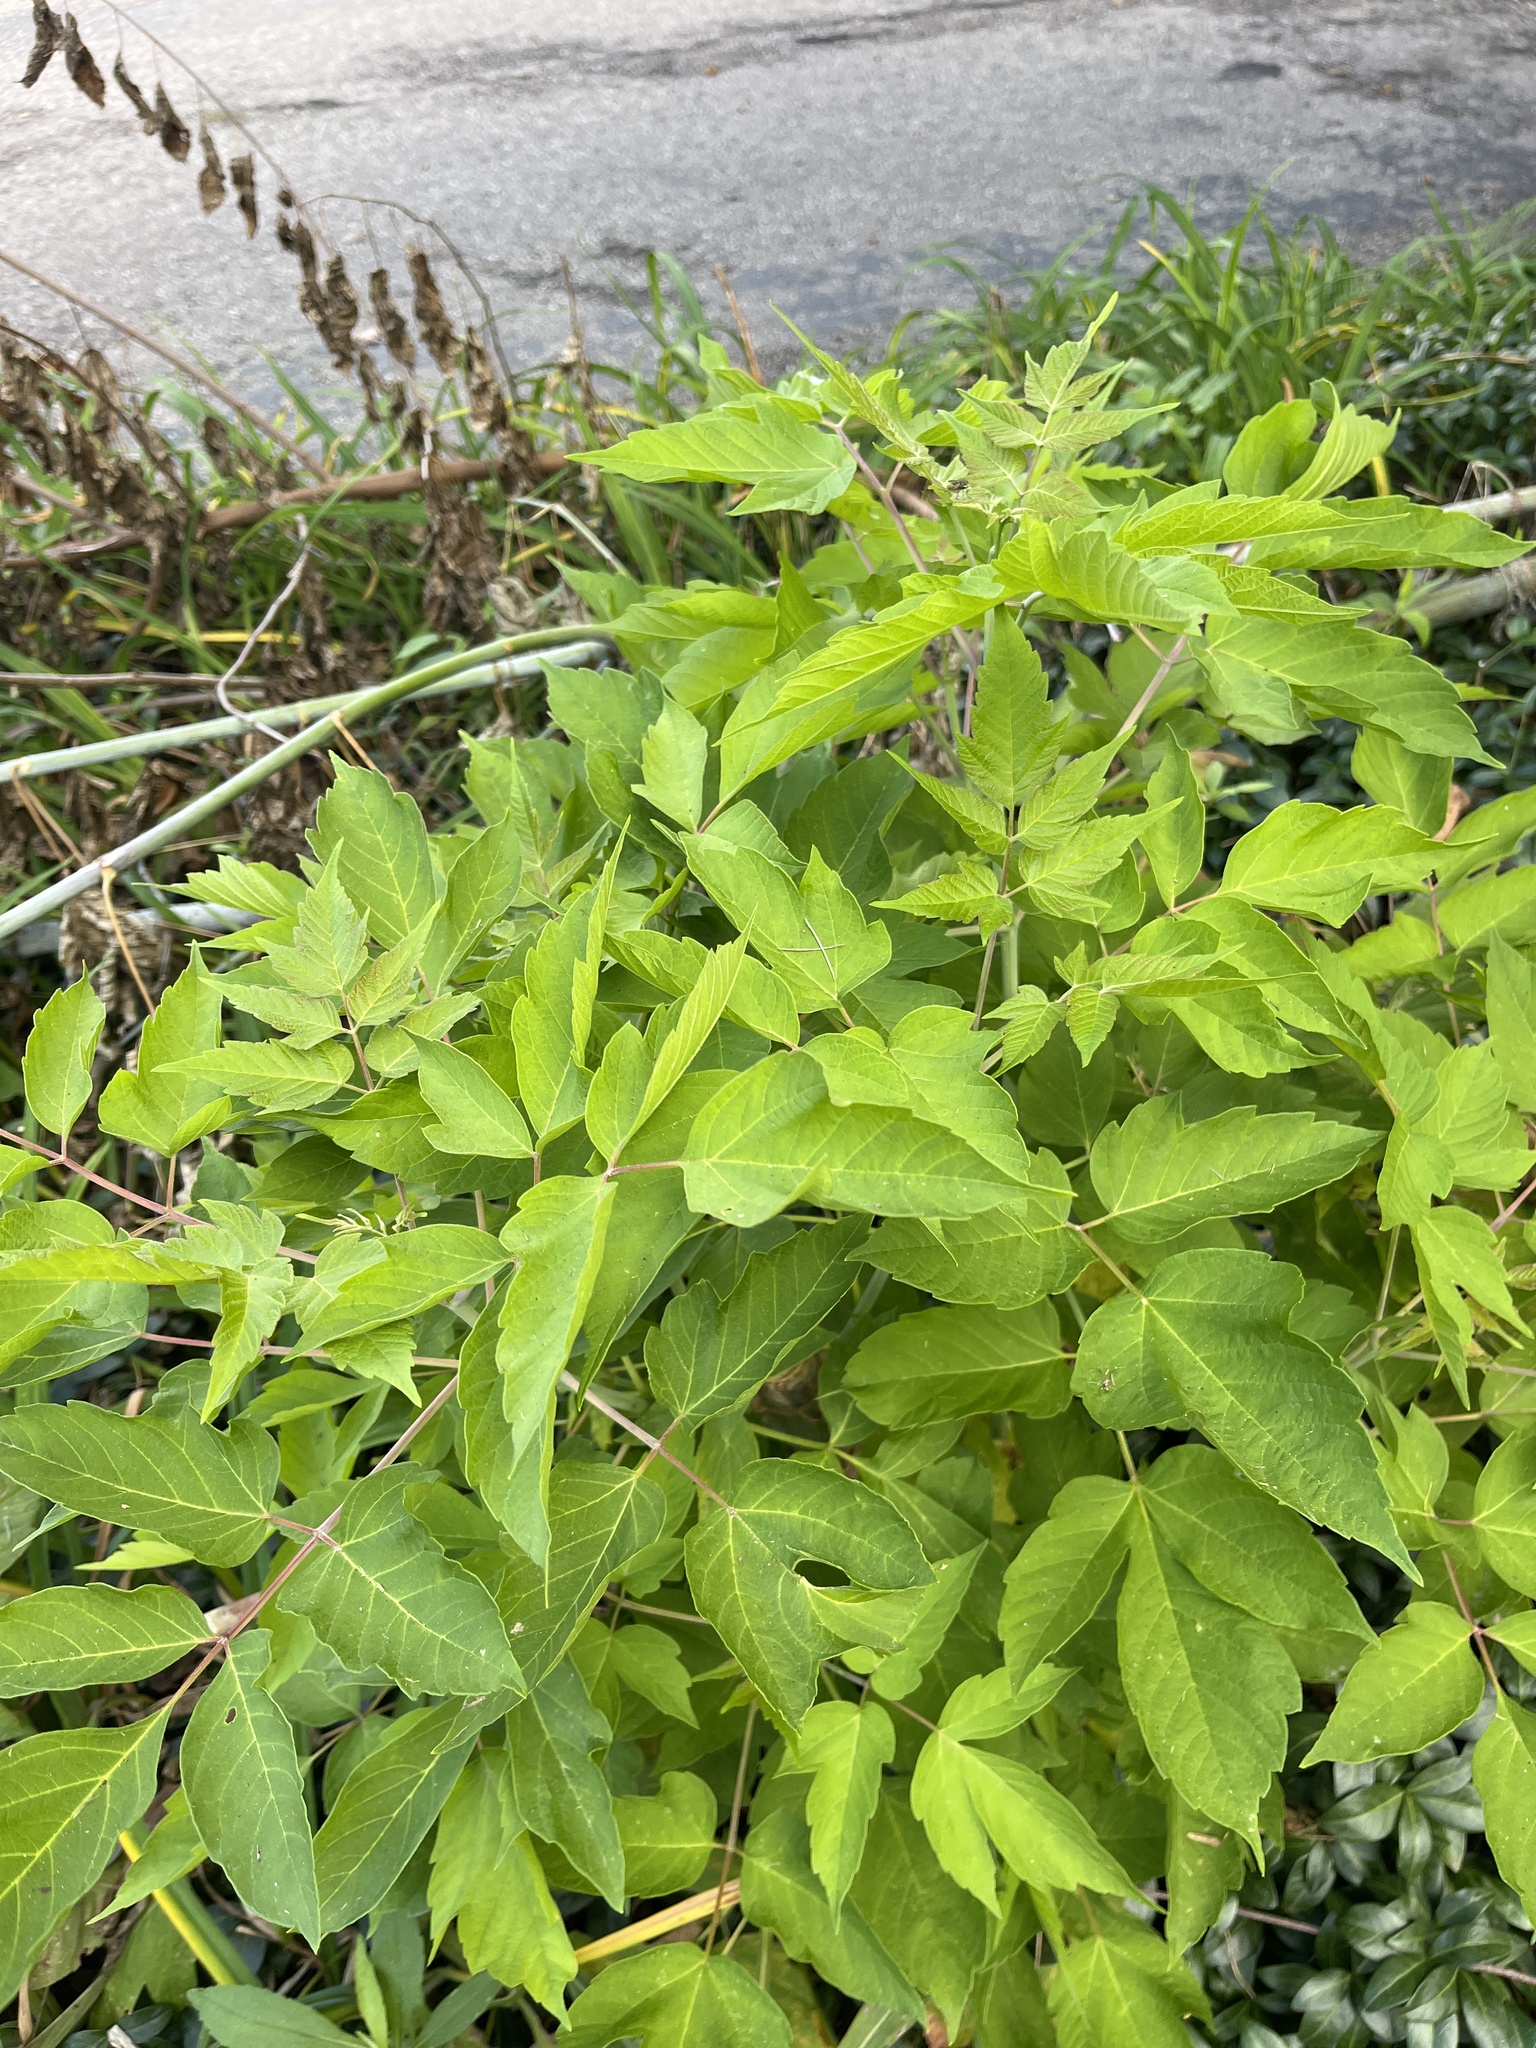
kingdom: Plantae
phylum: Tracheophyta
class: Magnoliopsida
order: Sapindales
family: Sapindaceae
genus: Acer
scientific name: Acer negundo
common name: Ashleaf maple
